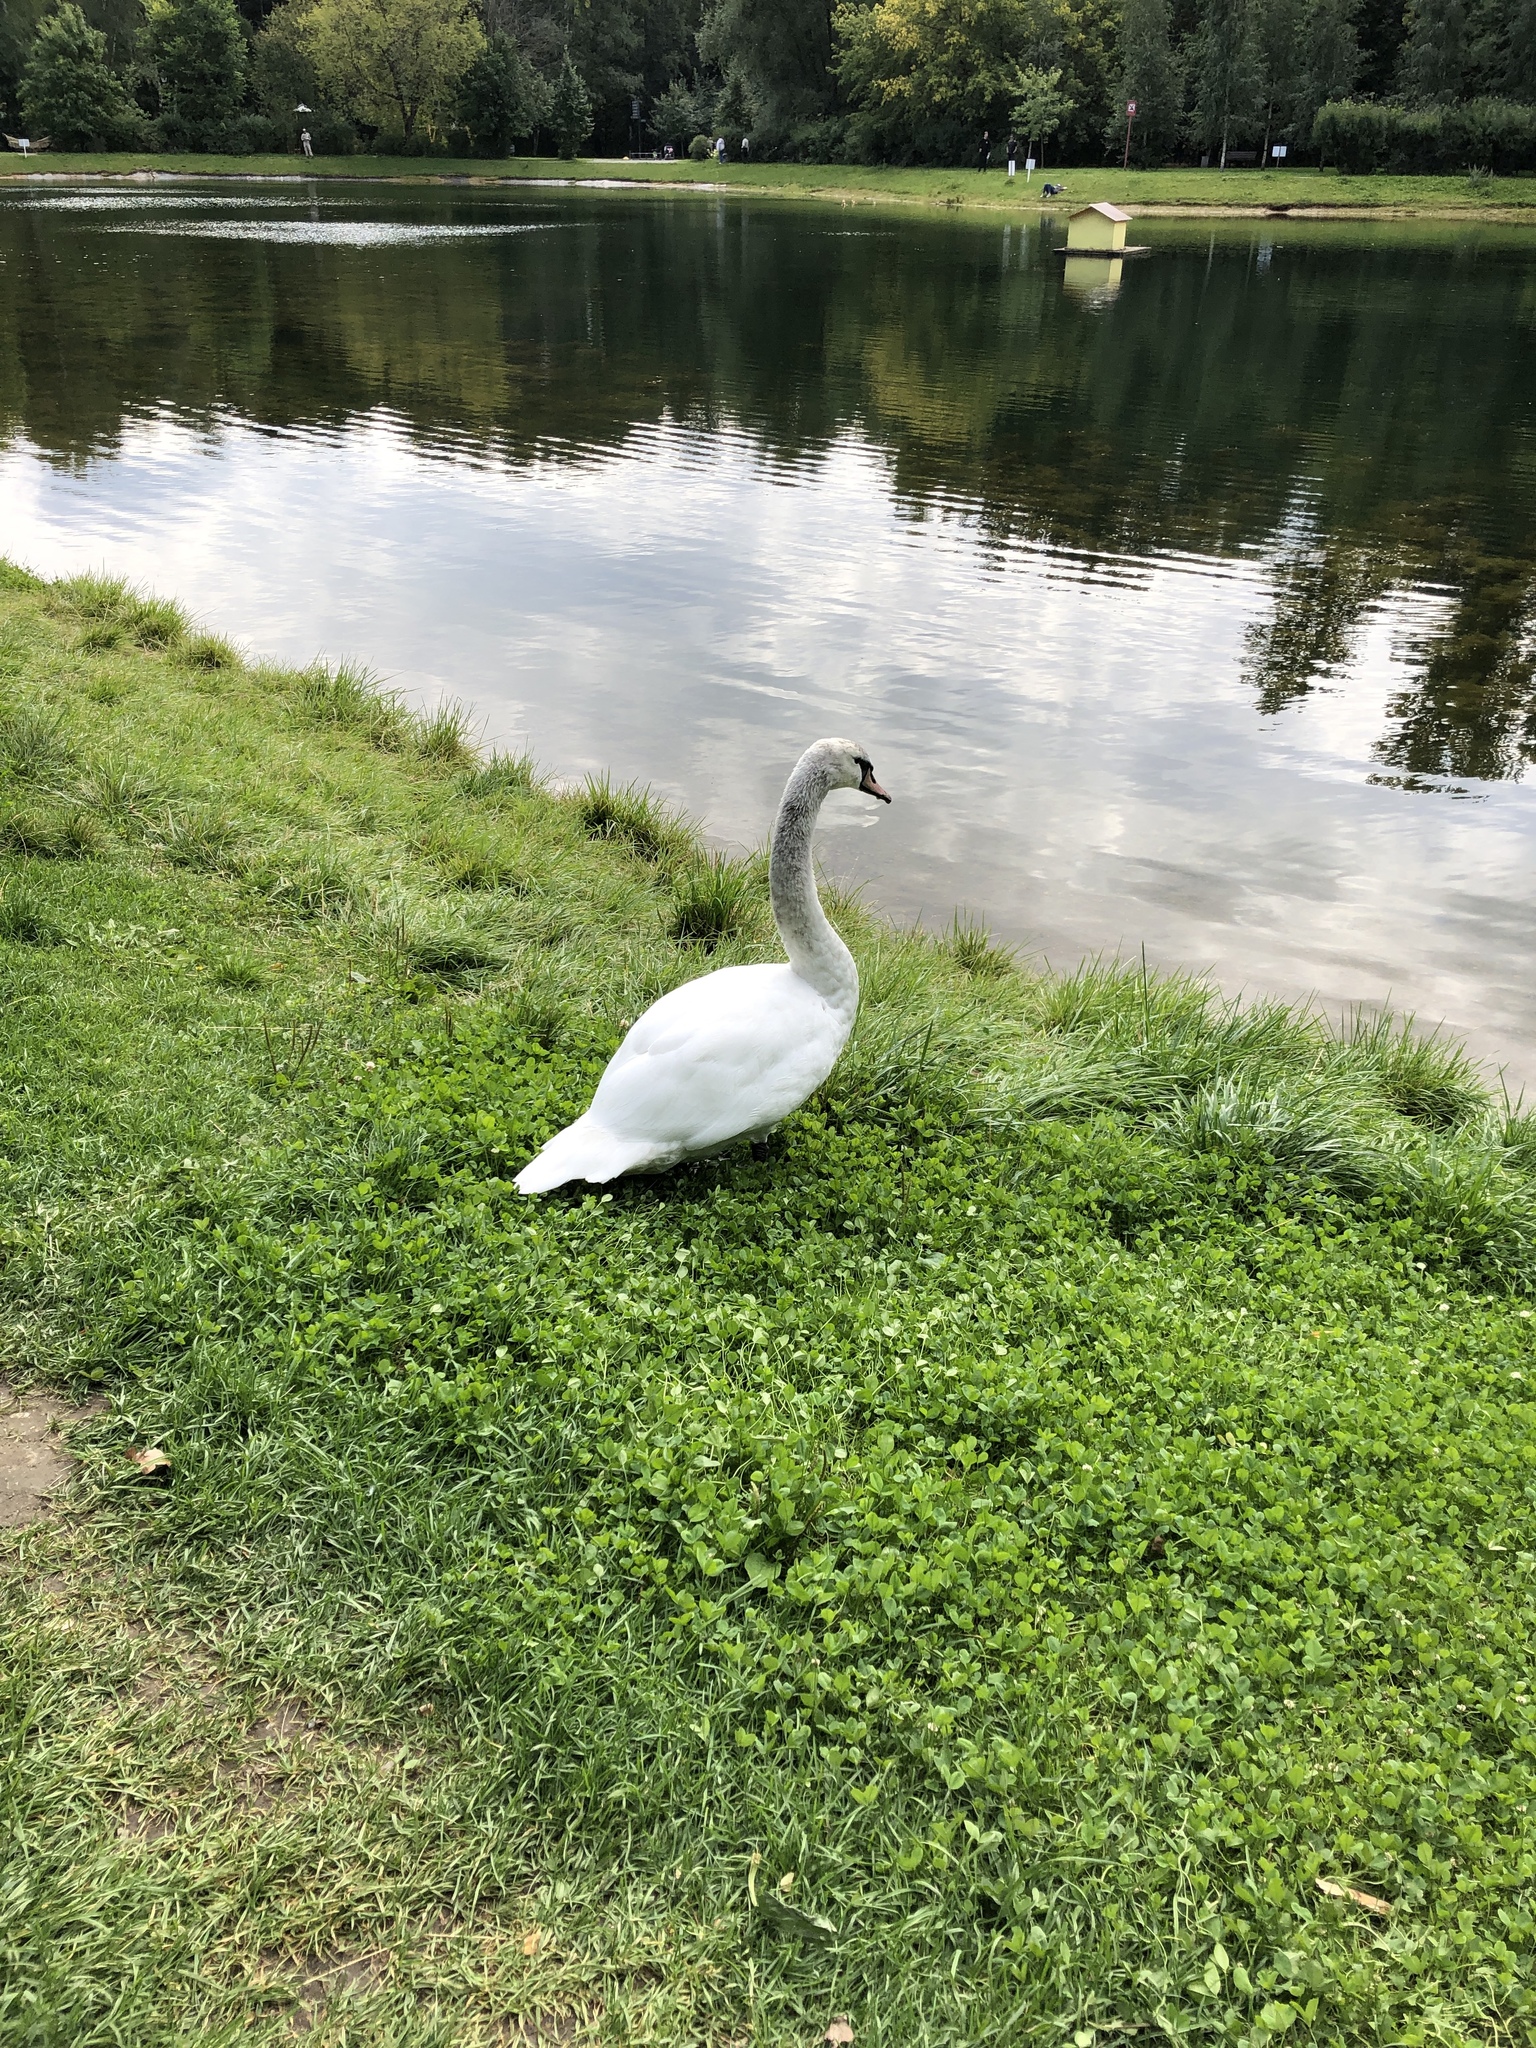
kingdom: Animalia
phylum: Chordata
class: Aves
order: Anseriformes
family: Anatidae
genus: Cygnus
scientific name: Cygnus olor
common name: Mute swan
